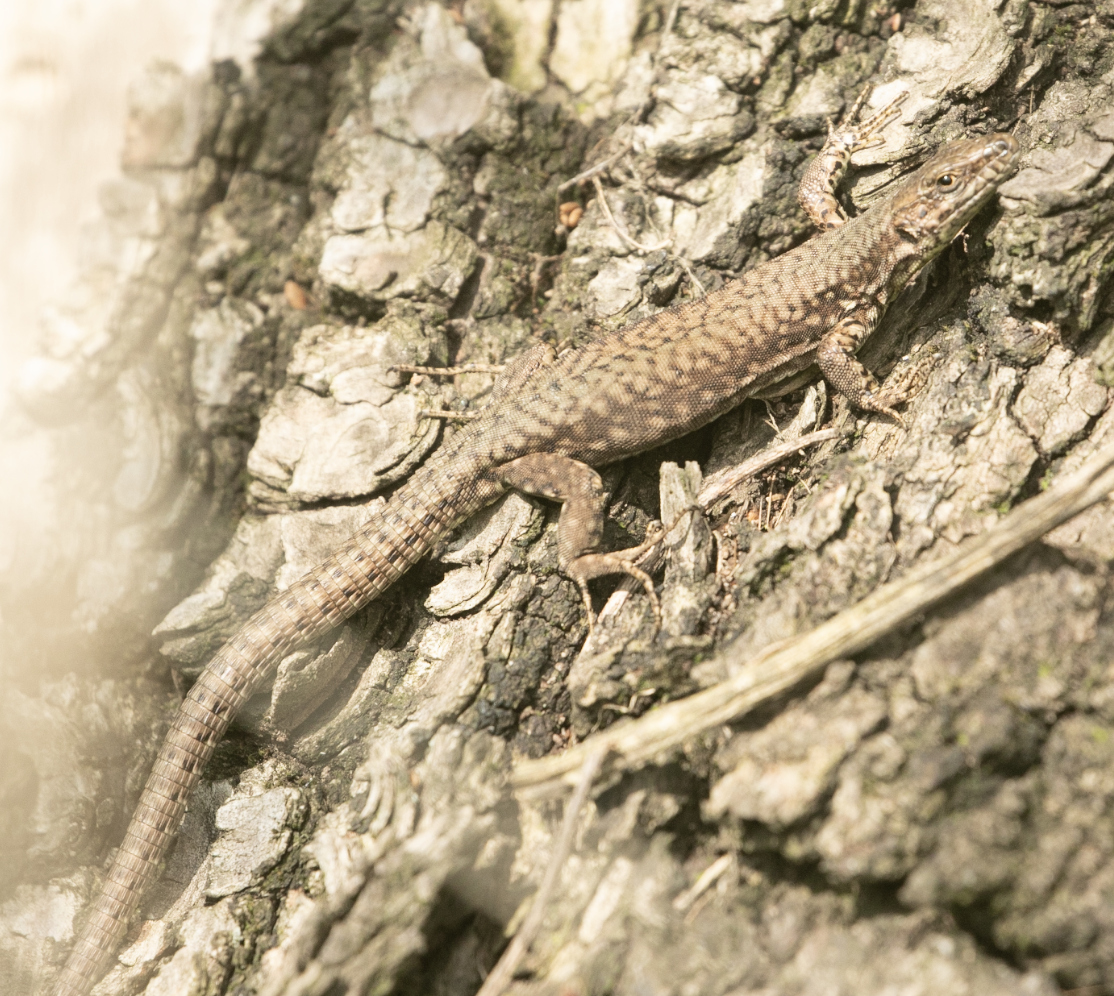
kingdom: Animalia
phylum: Chordata
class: Squamata
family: Lacertidae
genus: Podarcis
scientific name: Podarcis muralis
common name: Common wall lizard
